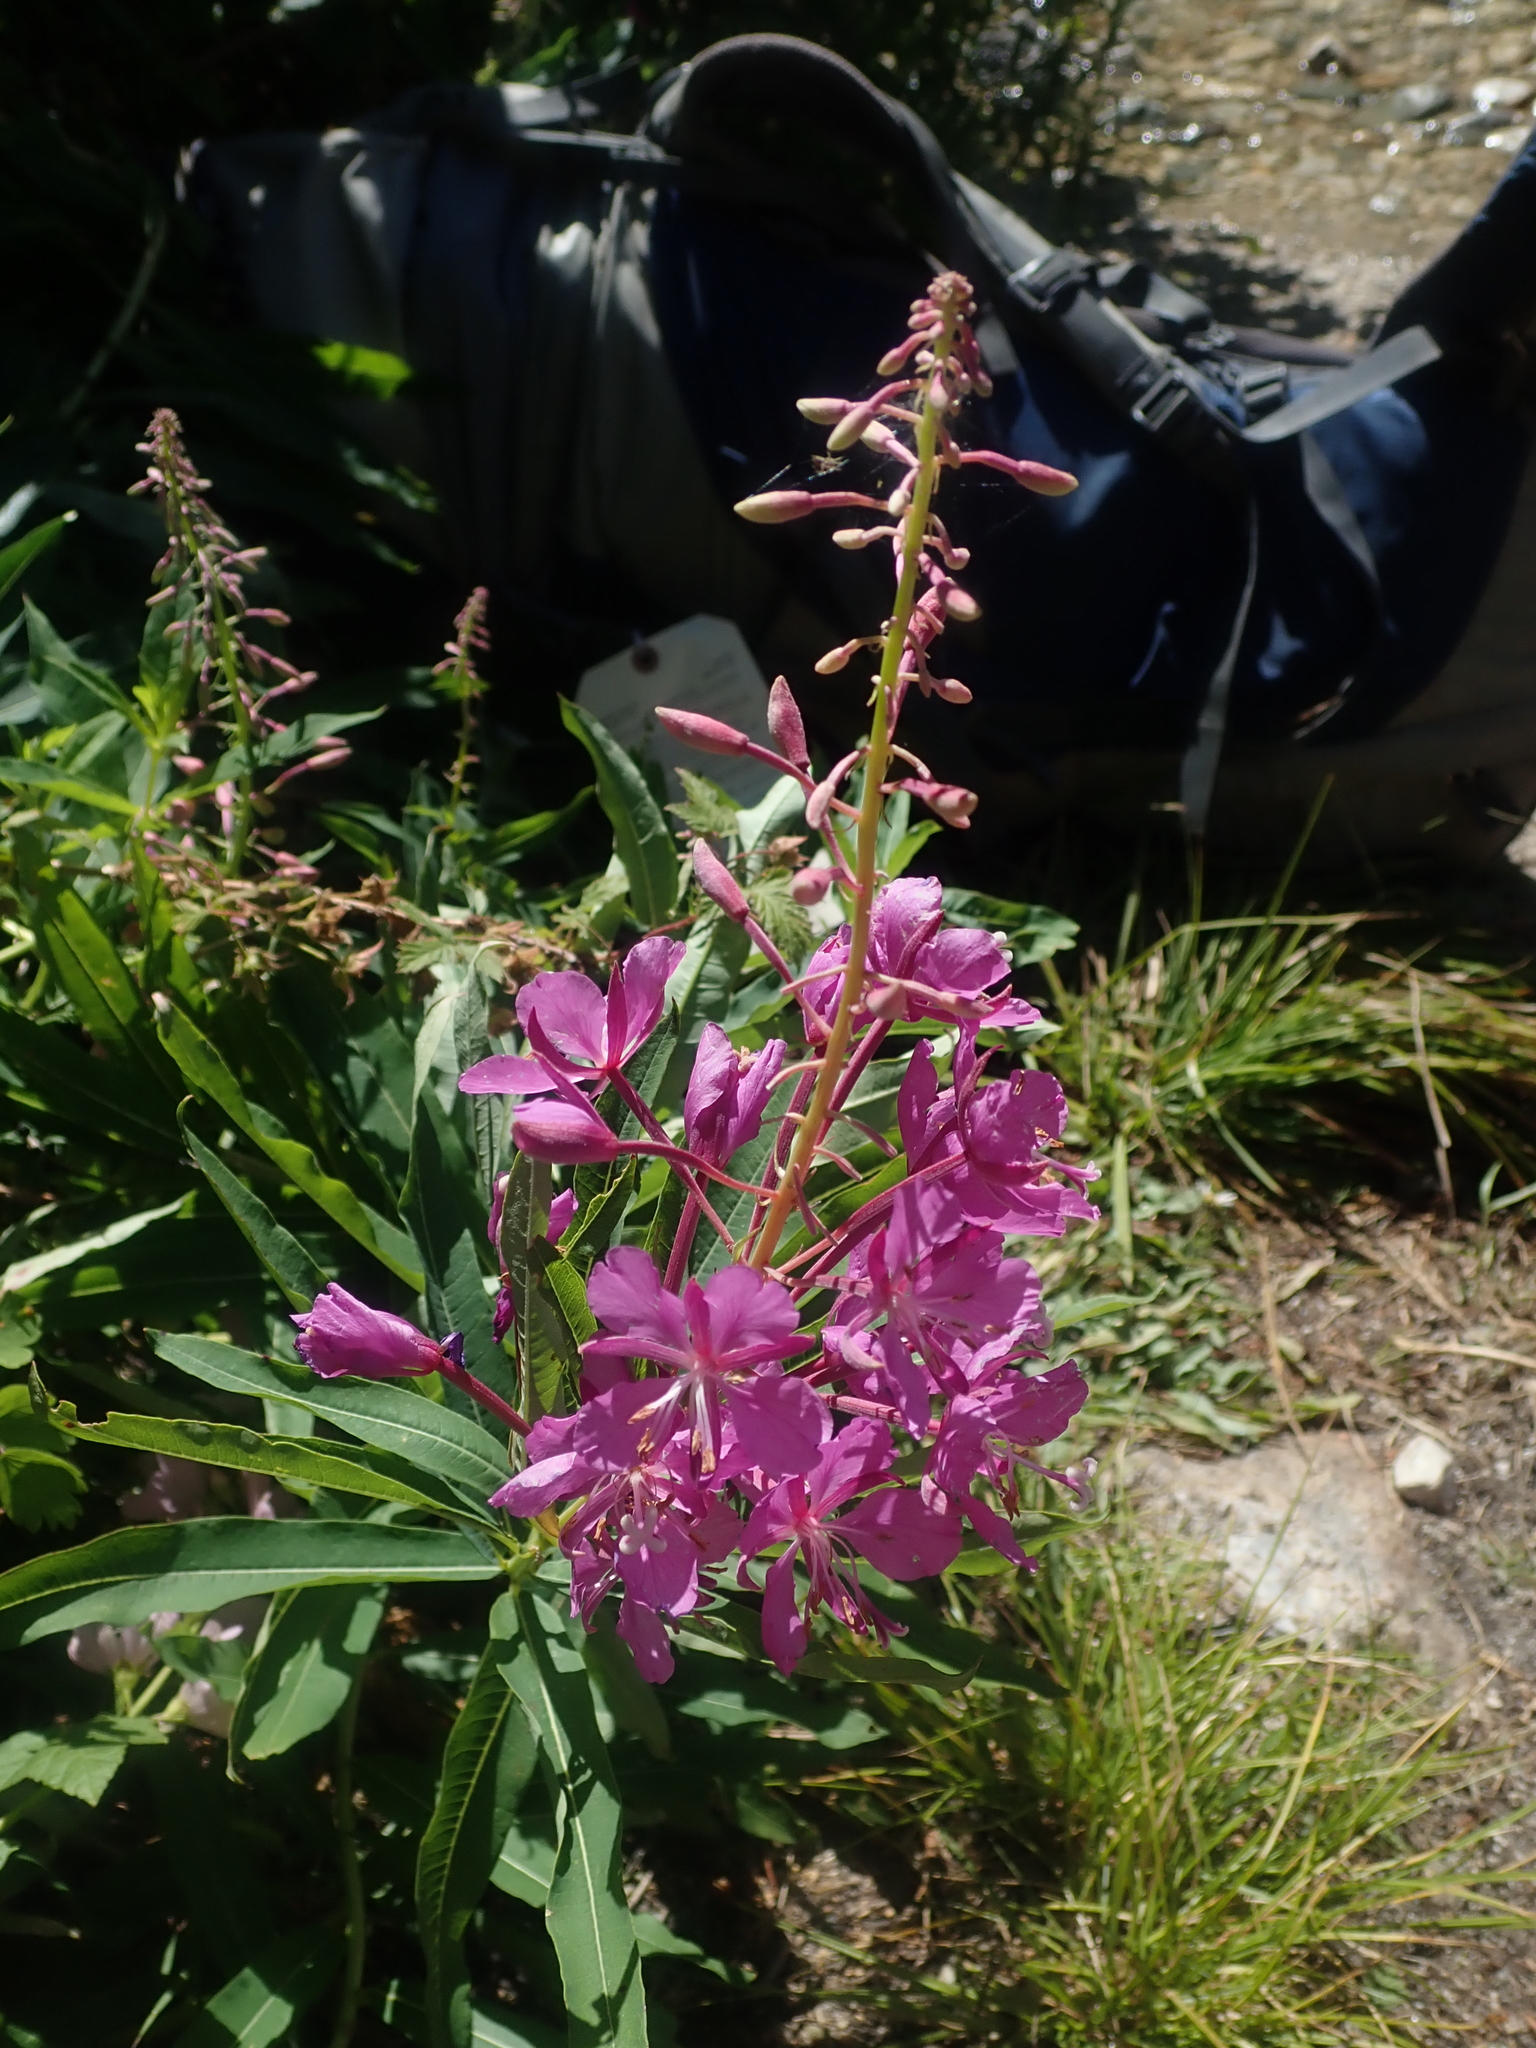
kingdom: Plantae
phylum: Tracheophyta
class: Magnoliopsida
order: Myrtales
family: Onagraceae
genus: Chamaenerion
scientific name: Chamaenerion angustifolium
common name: Fireweed
